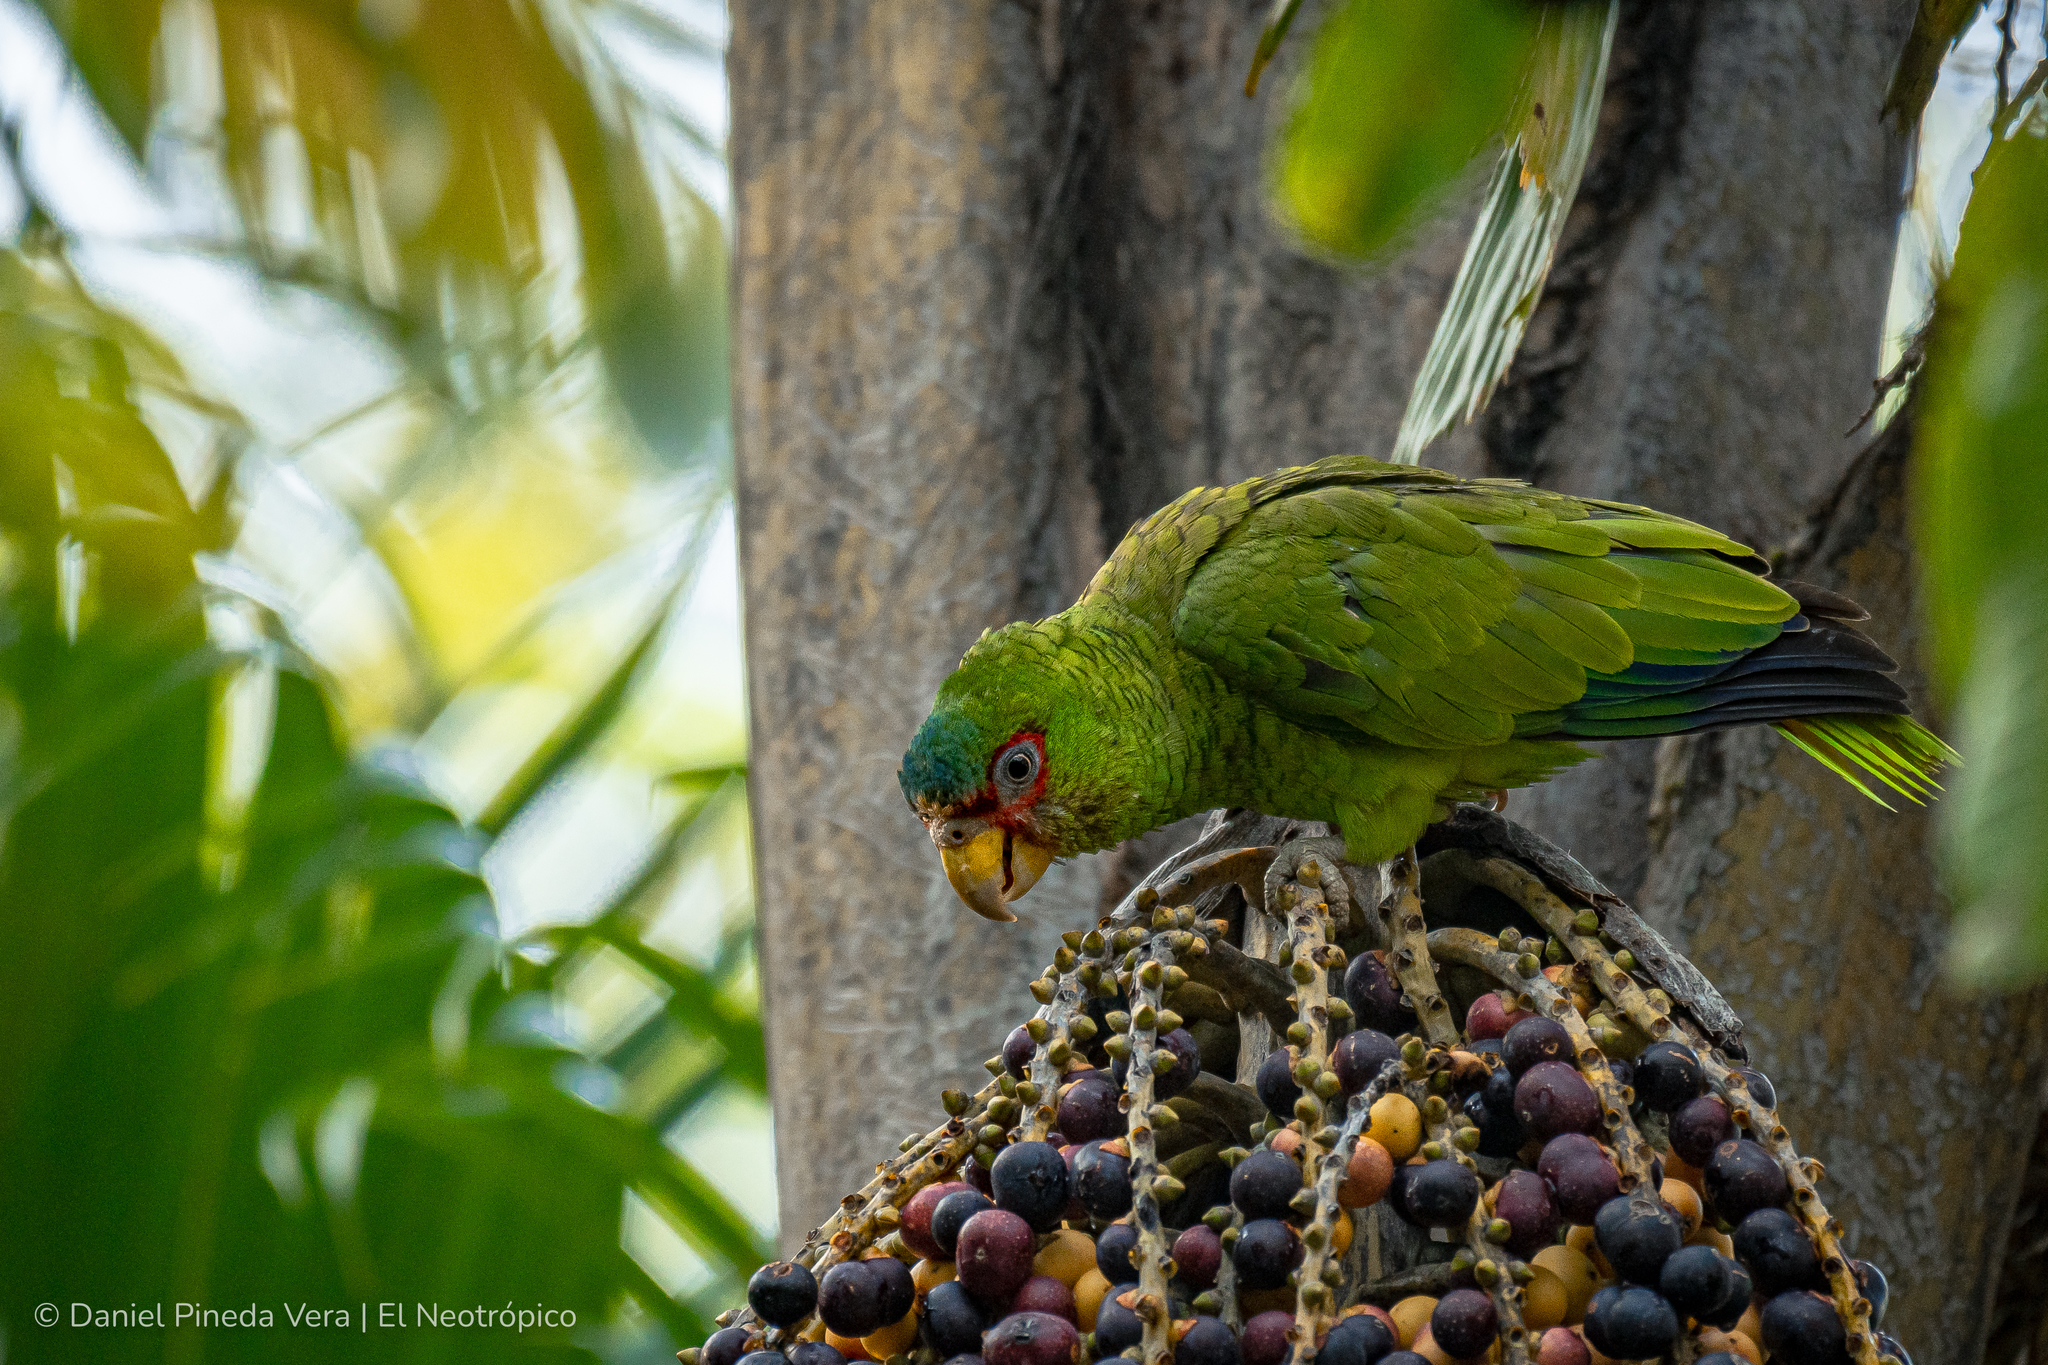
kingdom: Animalia
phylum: Chordata
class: Aves
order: Psittaciformes
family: Psittacidae
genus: Amazona
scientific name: Amazona albifrons
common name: White-fronted amazon
